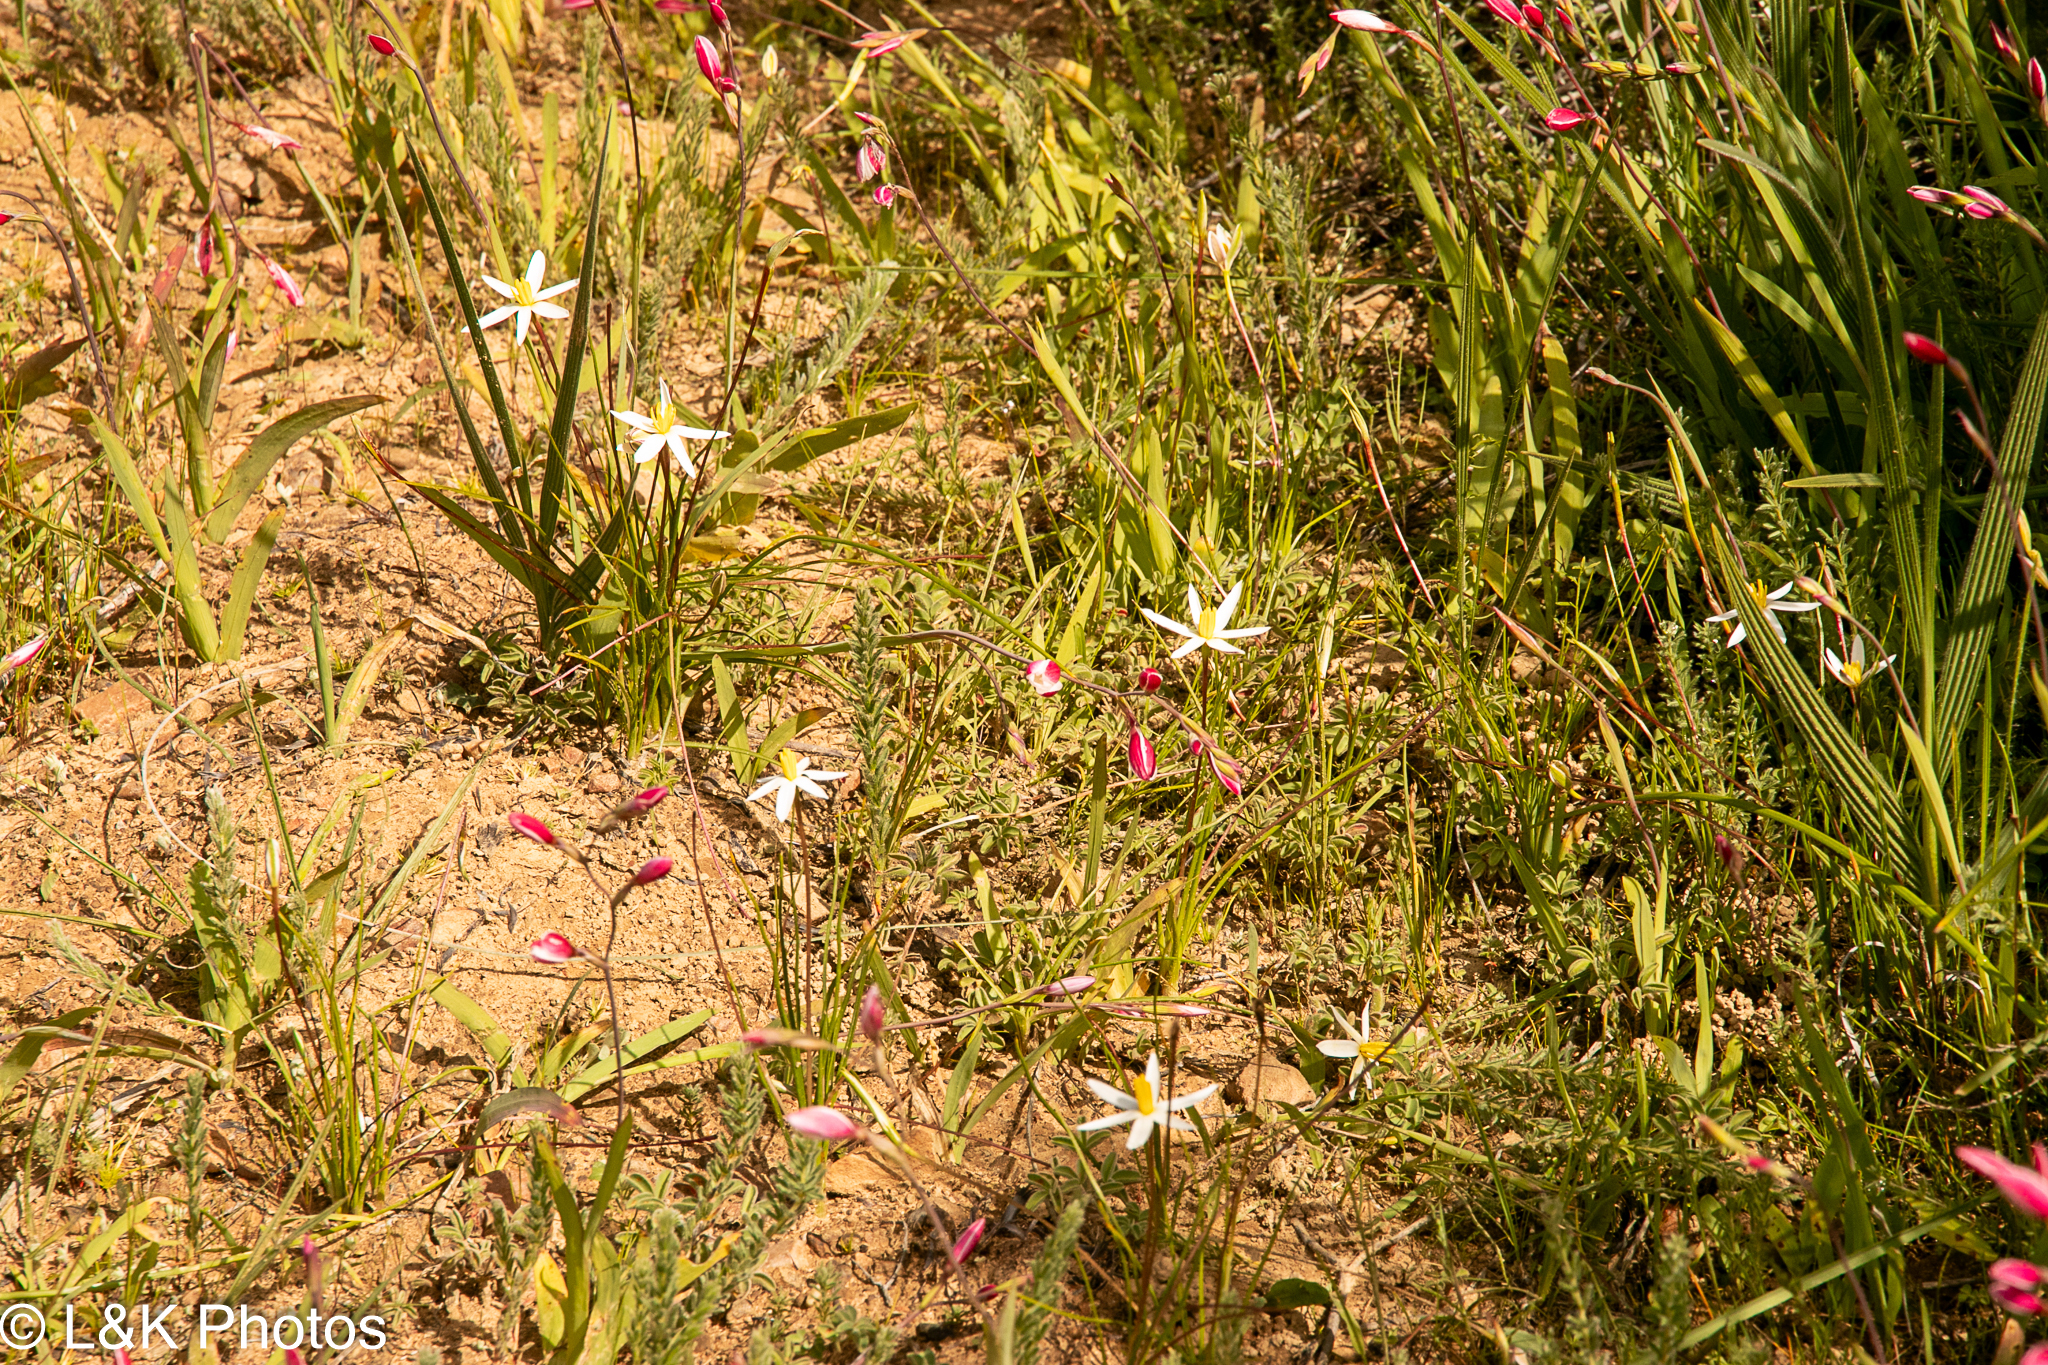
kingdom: Plantae
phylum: Tracheophyta
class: Liliopsida
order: Asparagales
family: Hypoxidaceae
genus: Pauridia
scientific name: Pauridia serrata
